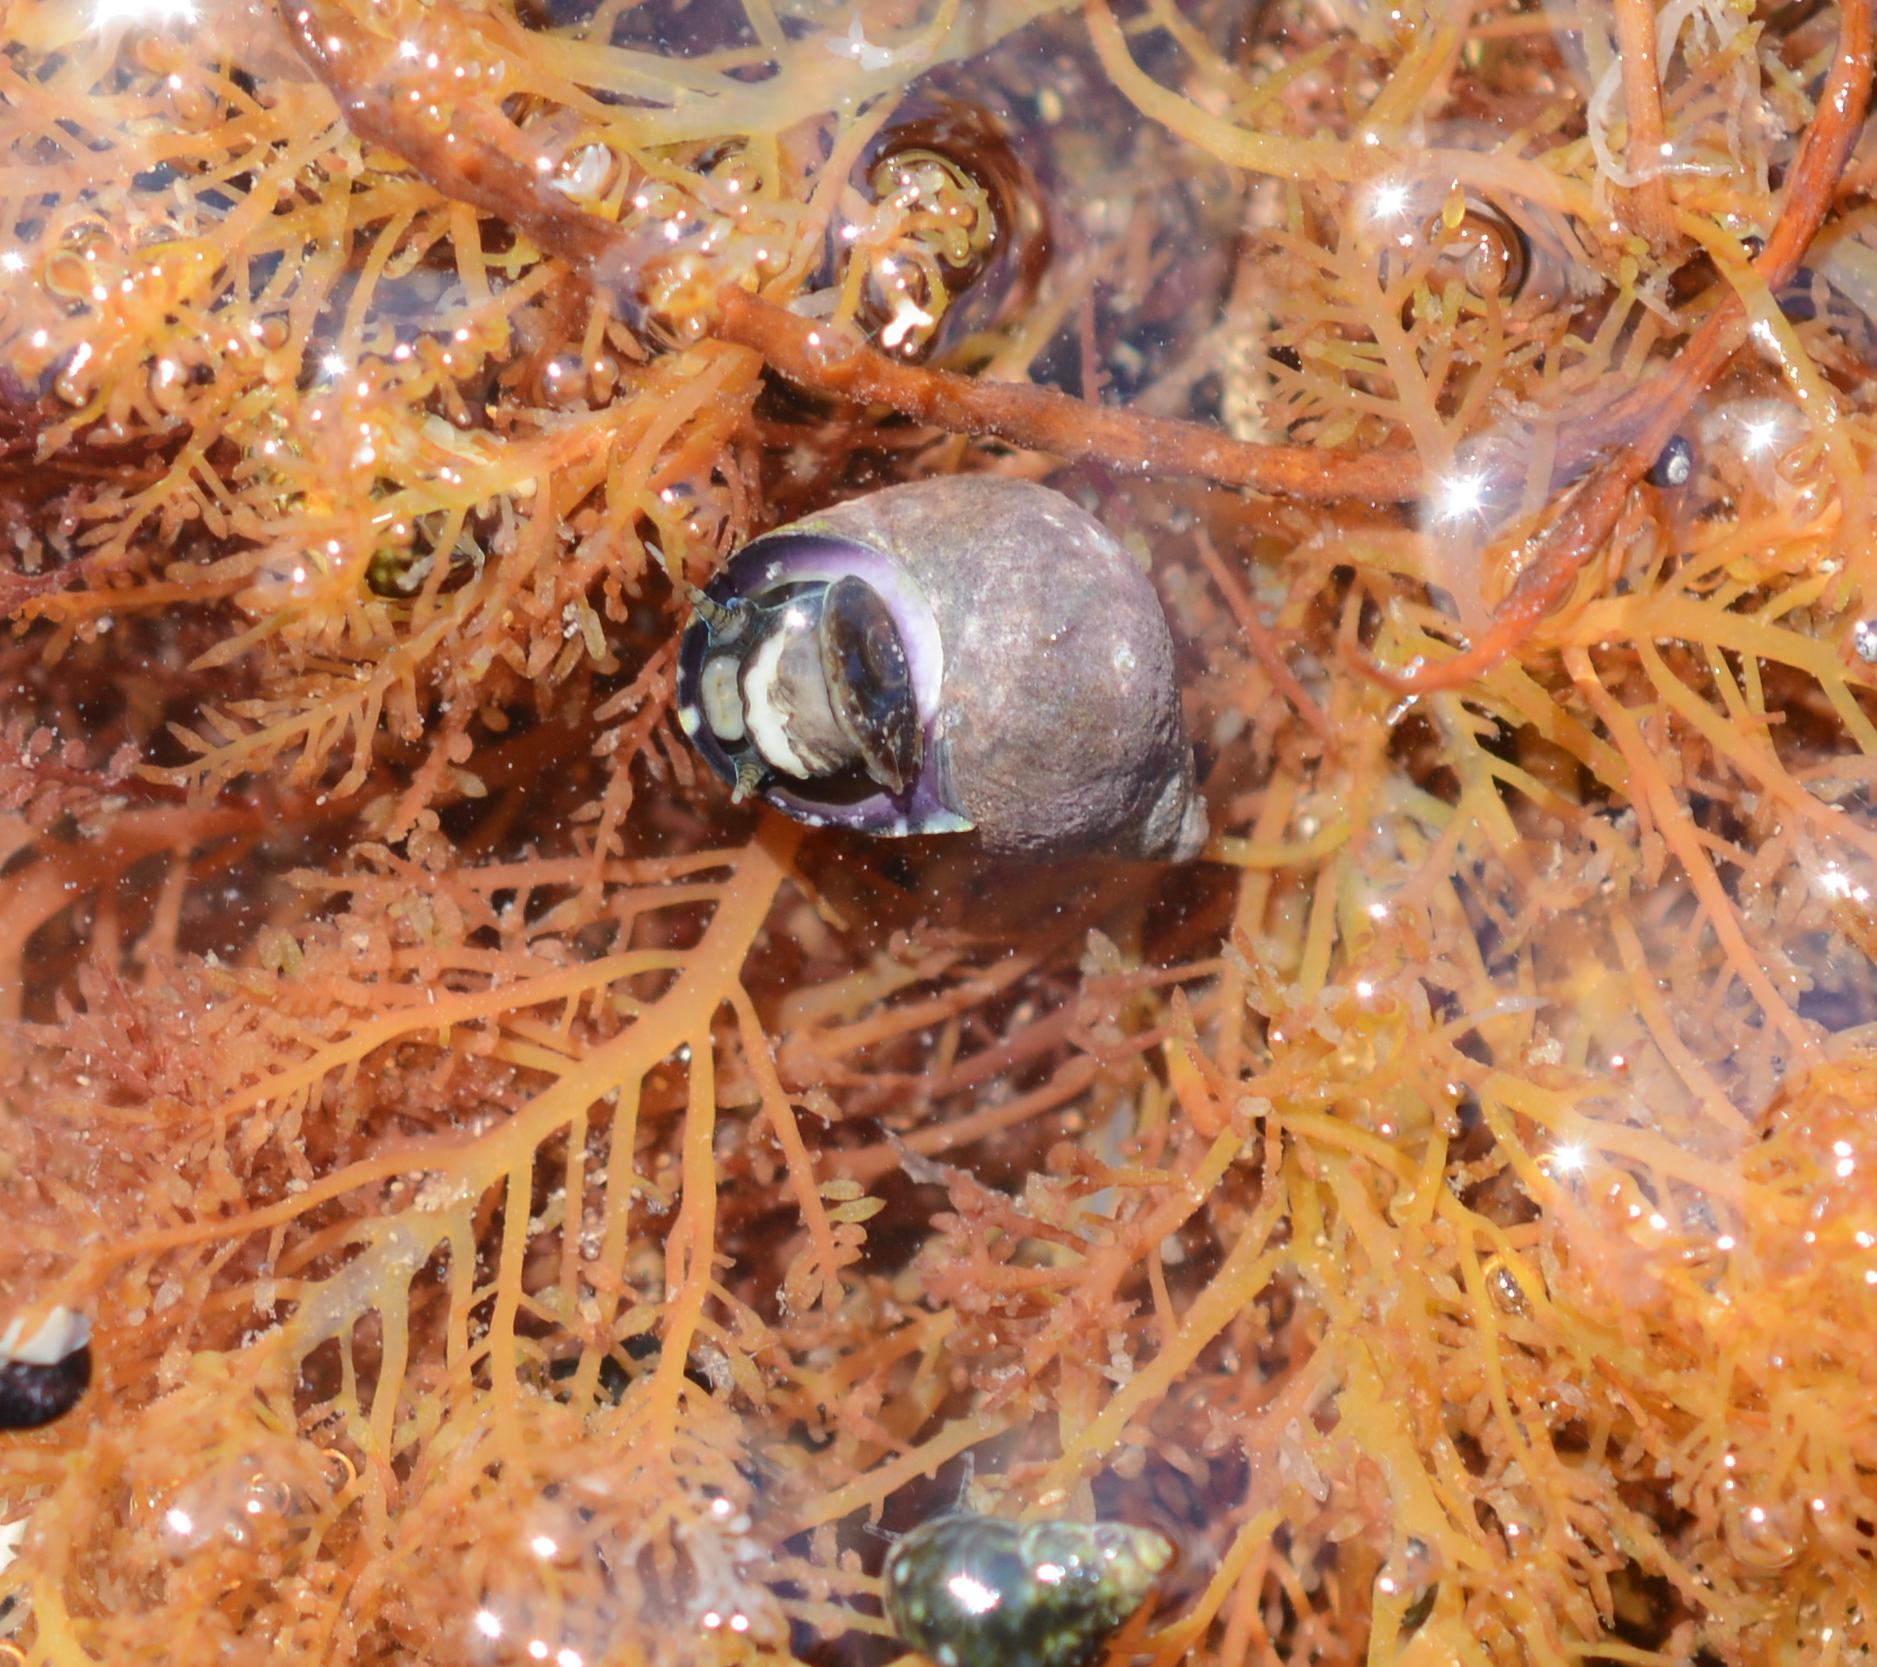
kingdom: Animalia
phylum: Mollusca
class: Gastropoda
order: Littorinimorpha
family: Littorinidae
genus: Littorina
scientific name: Littorina keenae
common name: Eroded periwinkle
